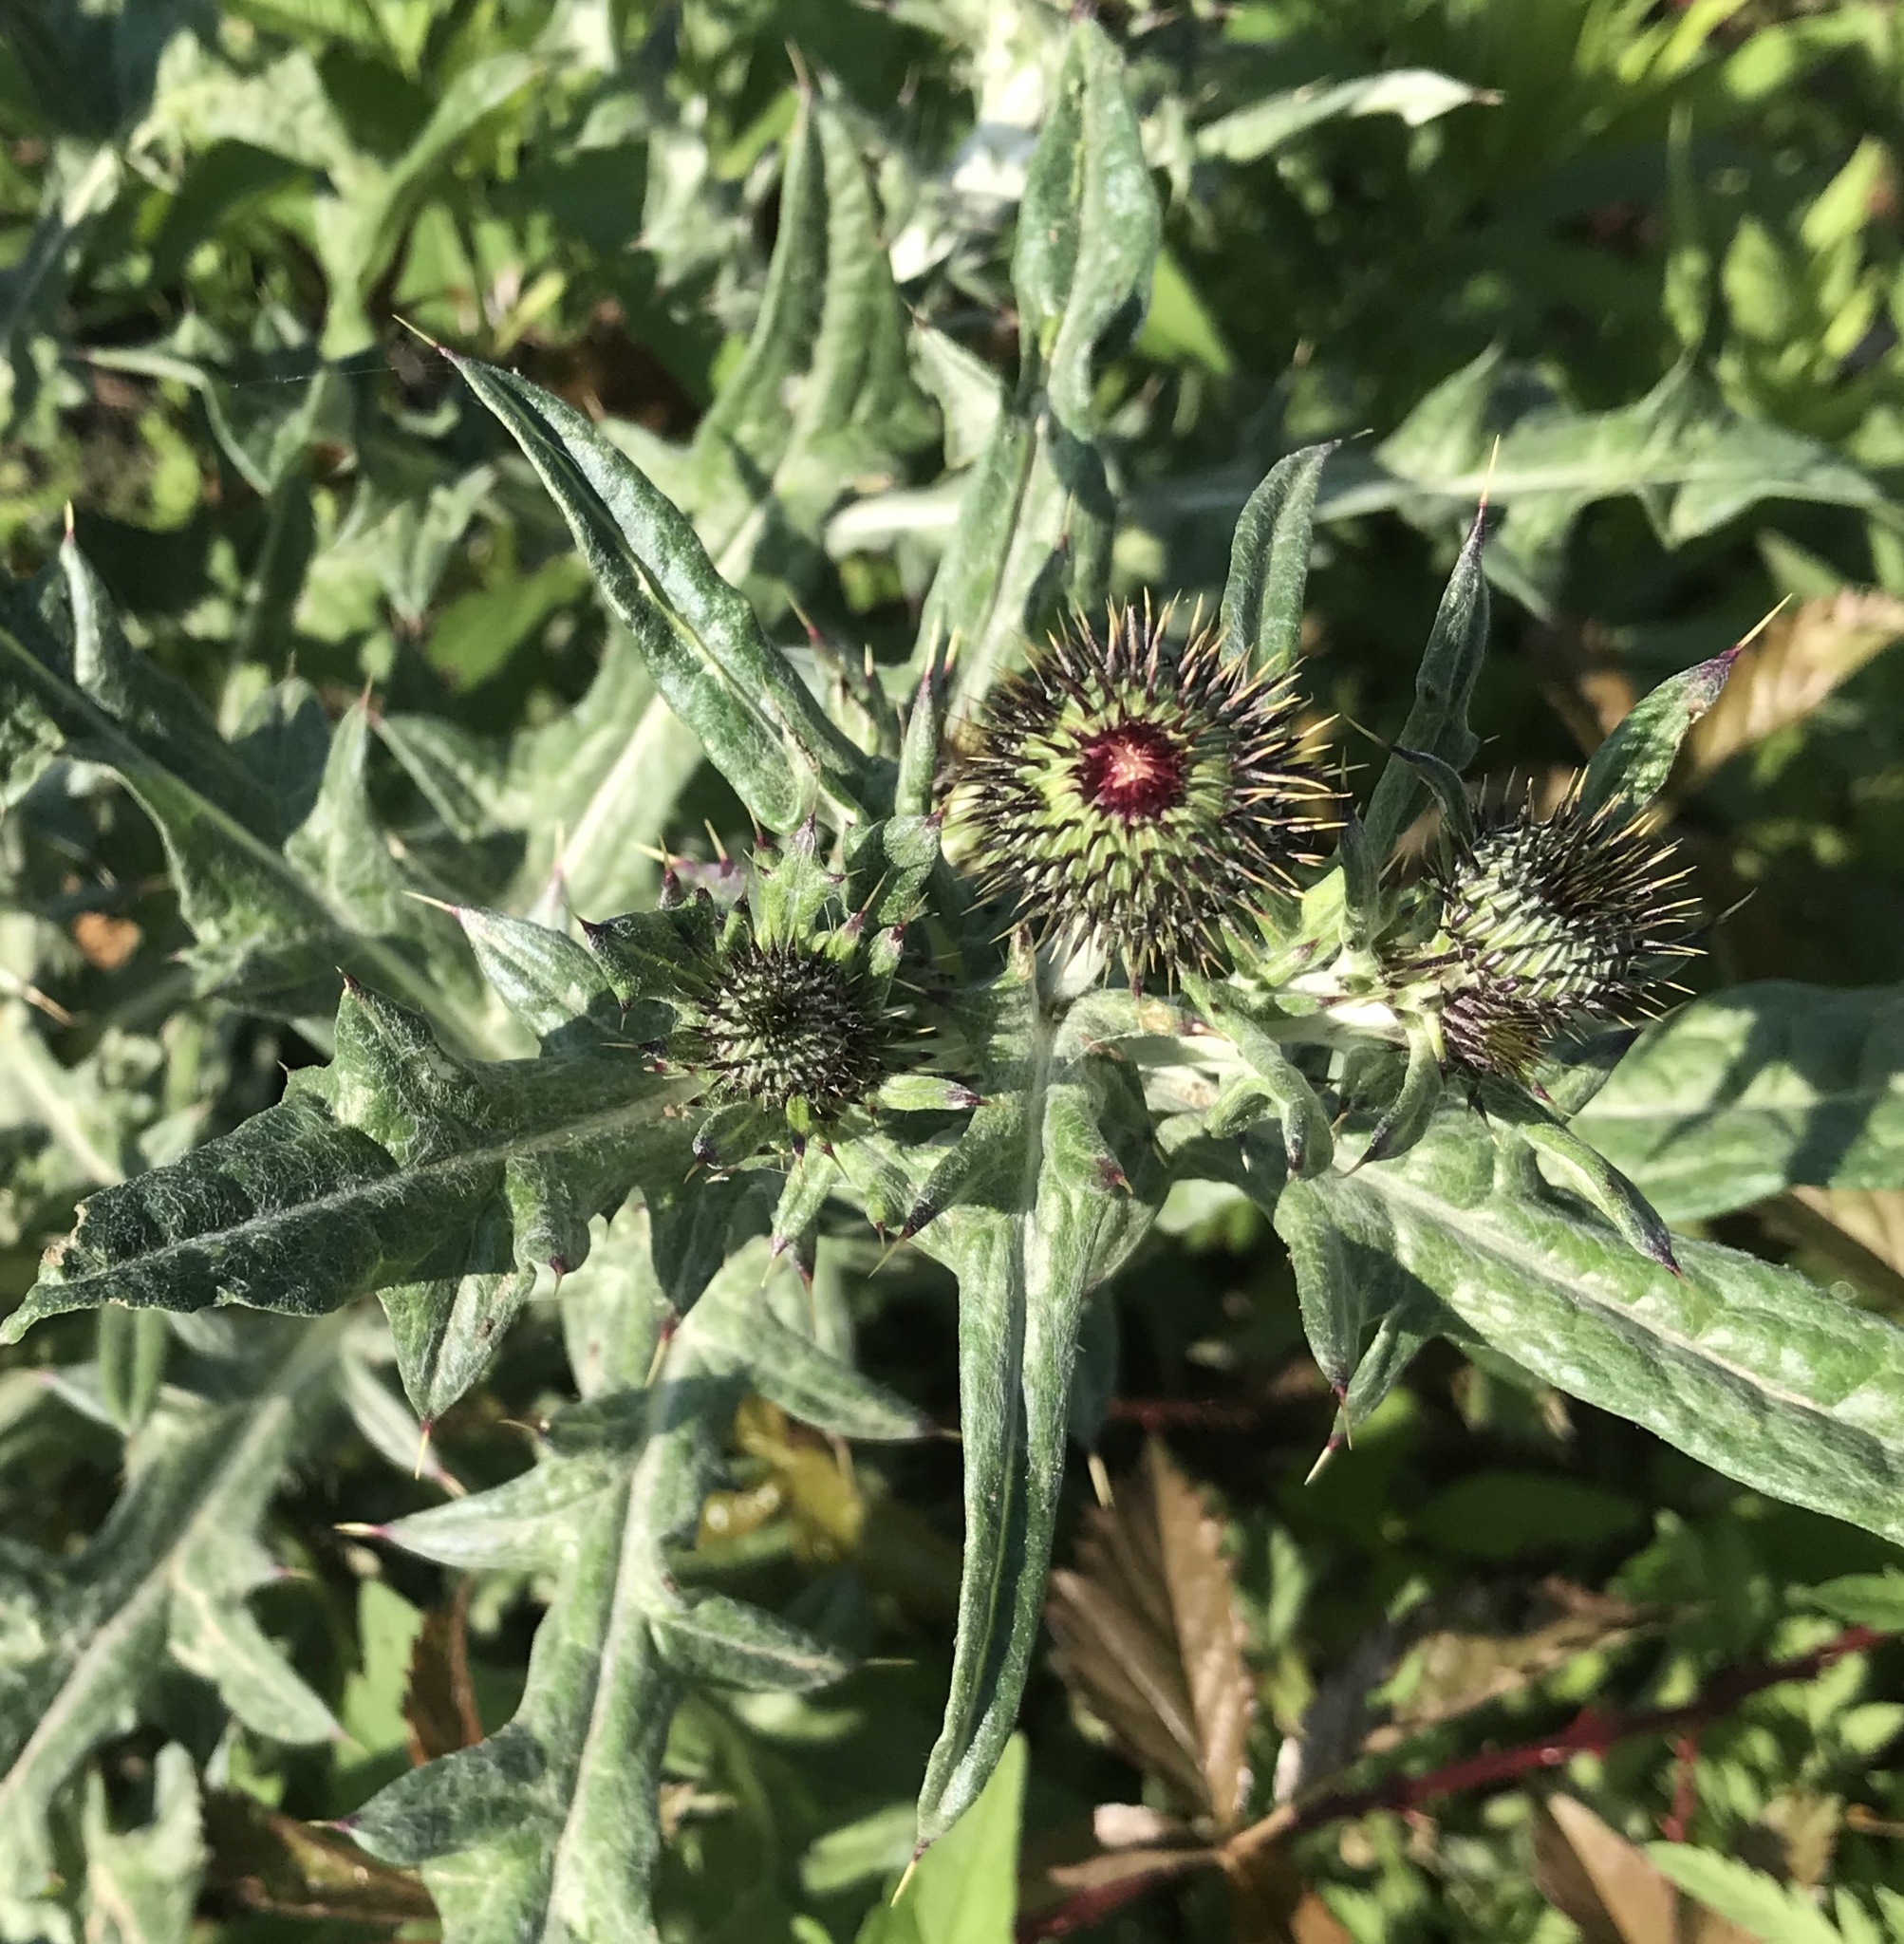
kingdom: Plantae
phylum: Tracheophyta
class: Magnoliopsida
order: Asterales
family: Asteraceae
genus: Cirsium
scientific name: Cirsium texanum
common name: Texas purple thistle
